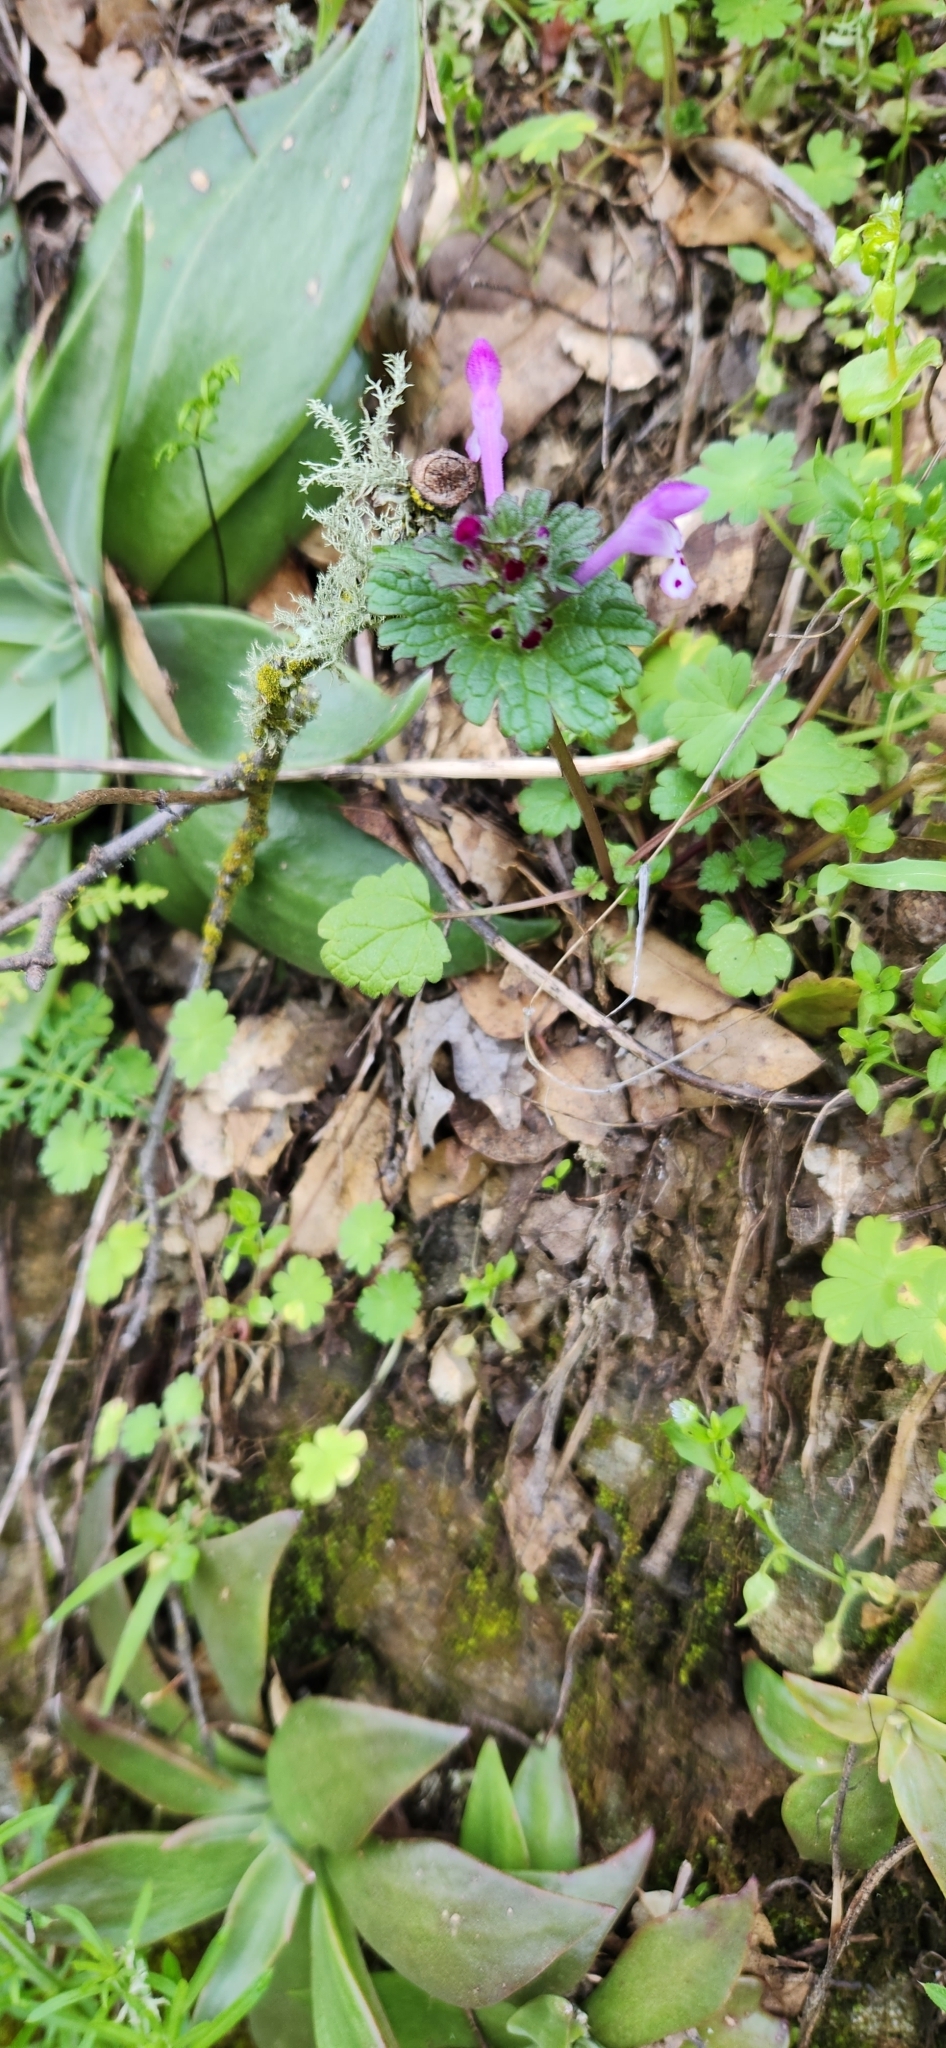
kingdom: Plantae
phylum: Tracheophyta
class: Magnoliopsida
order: Lamiales
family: Lamiaceae
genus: Lamium
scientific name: Lamium amplexicaule
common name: Henbit dead-nettle
